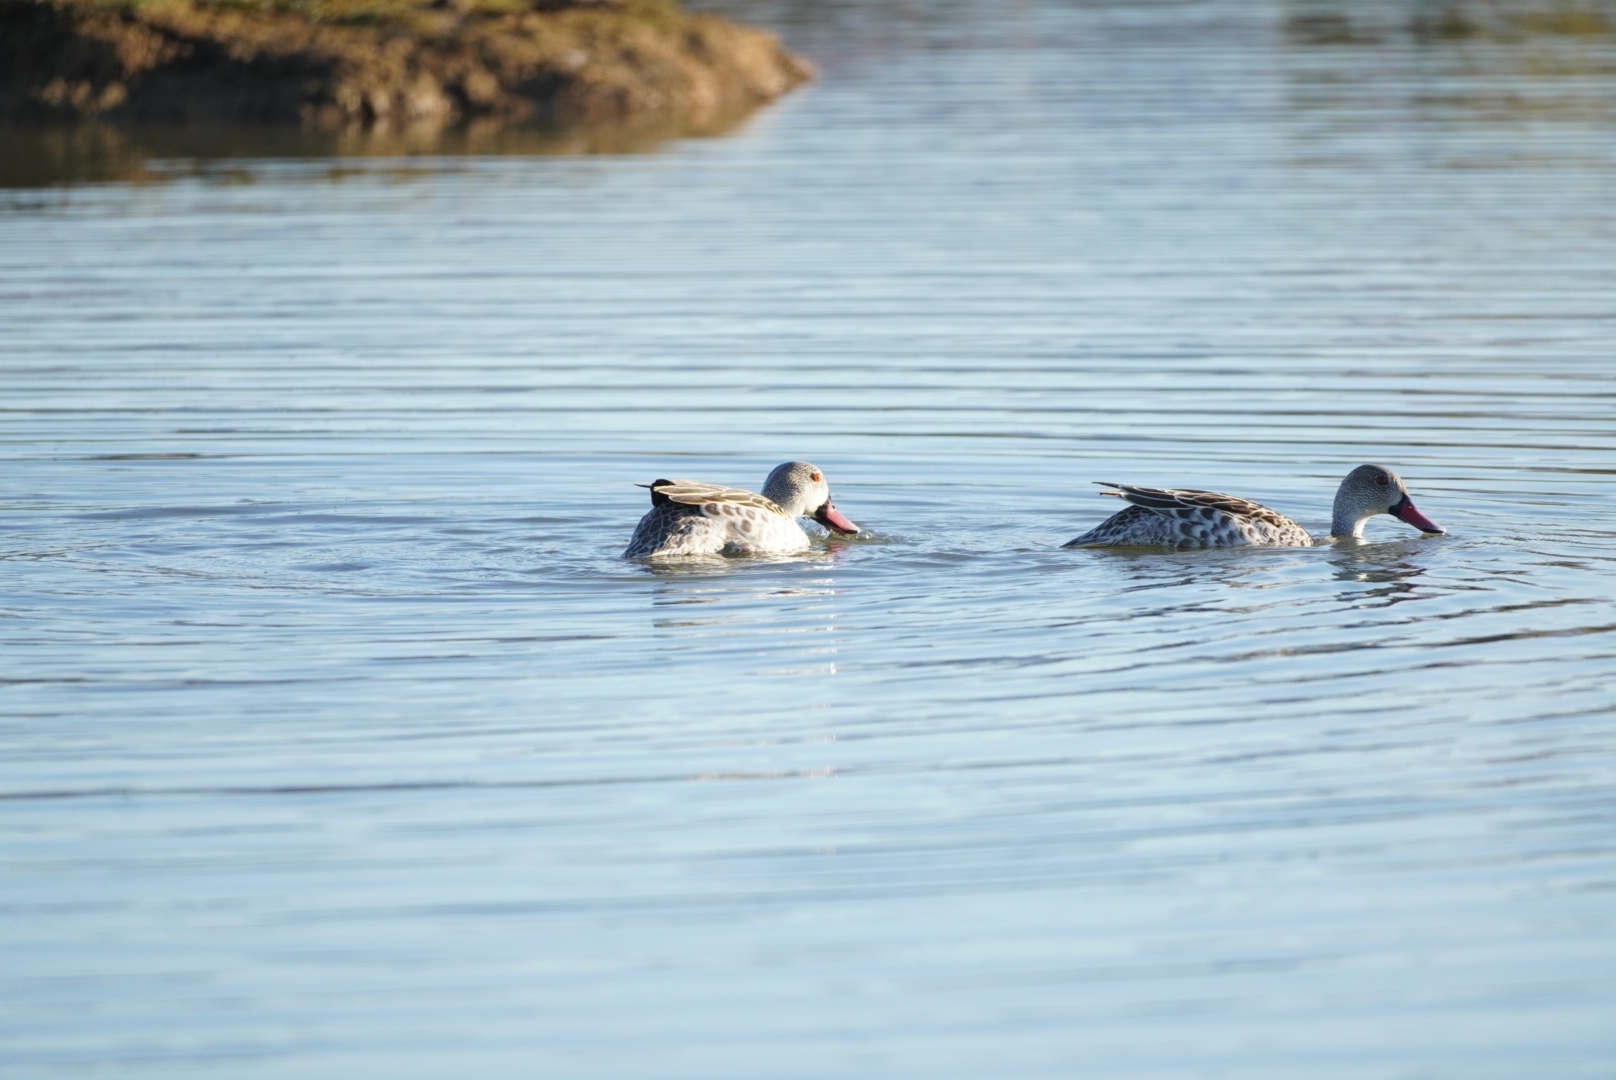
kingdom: Animalia
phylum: Chordata
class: Aves
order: Anseriformes
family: Anatidae
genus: Anas
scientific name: Anas capensis
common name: Cape teal
